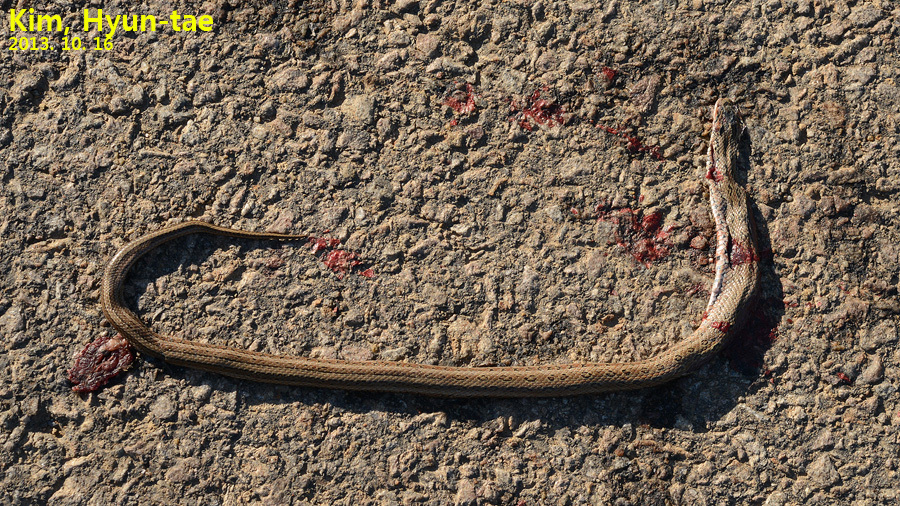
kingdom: Animalia
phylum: Chordata
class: Squamata
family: Colubridae
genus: Oocatochus
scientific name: Oocatochus rufodorsatus
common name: Frog-eating rat snake
